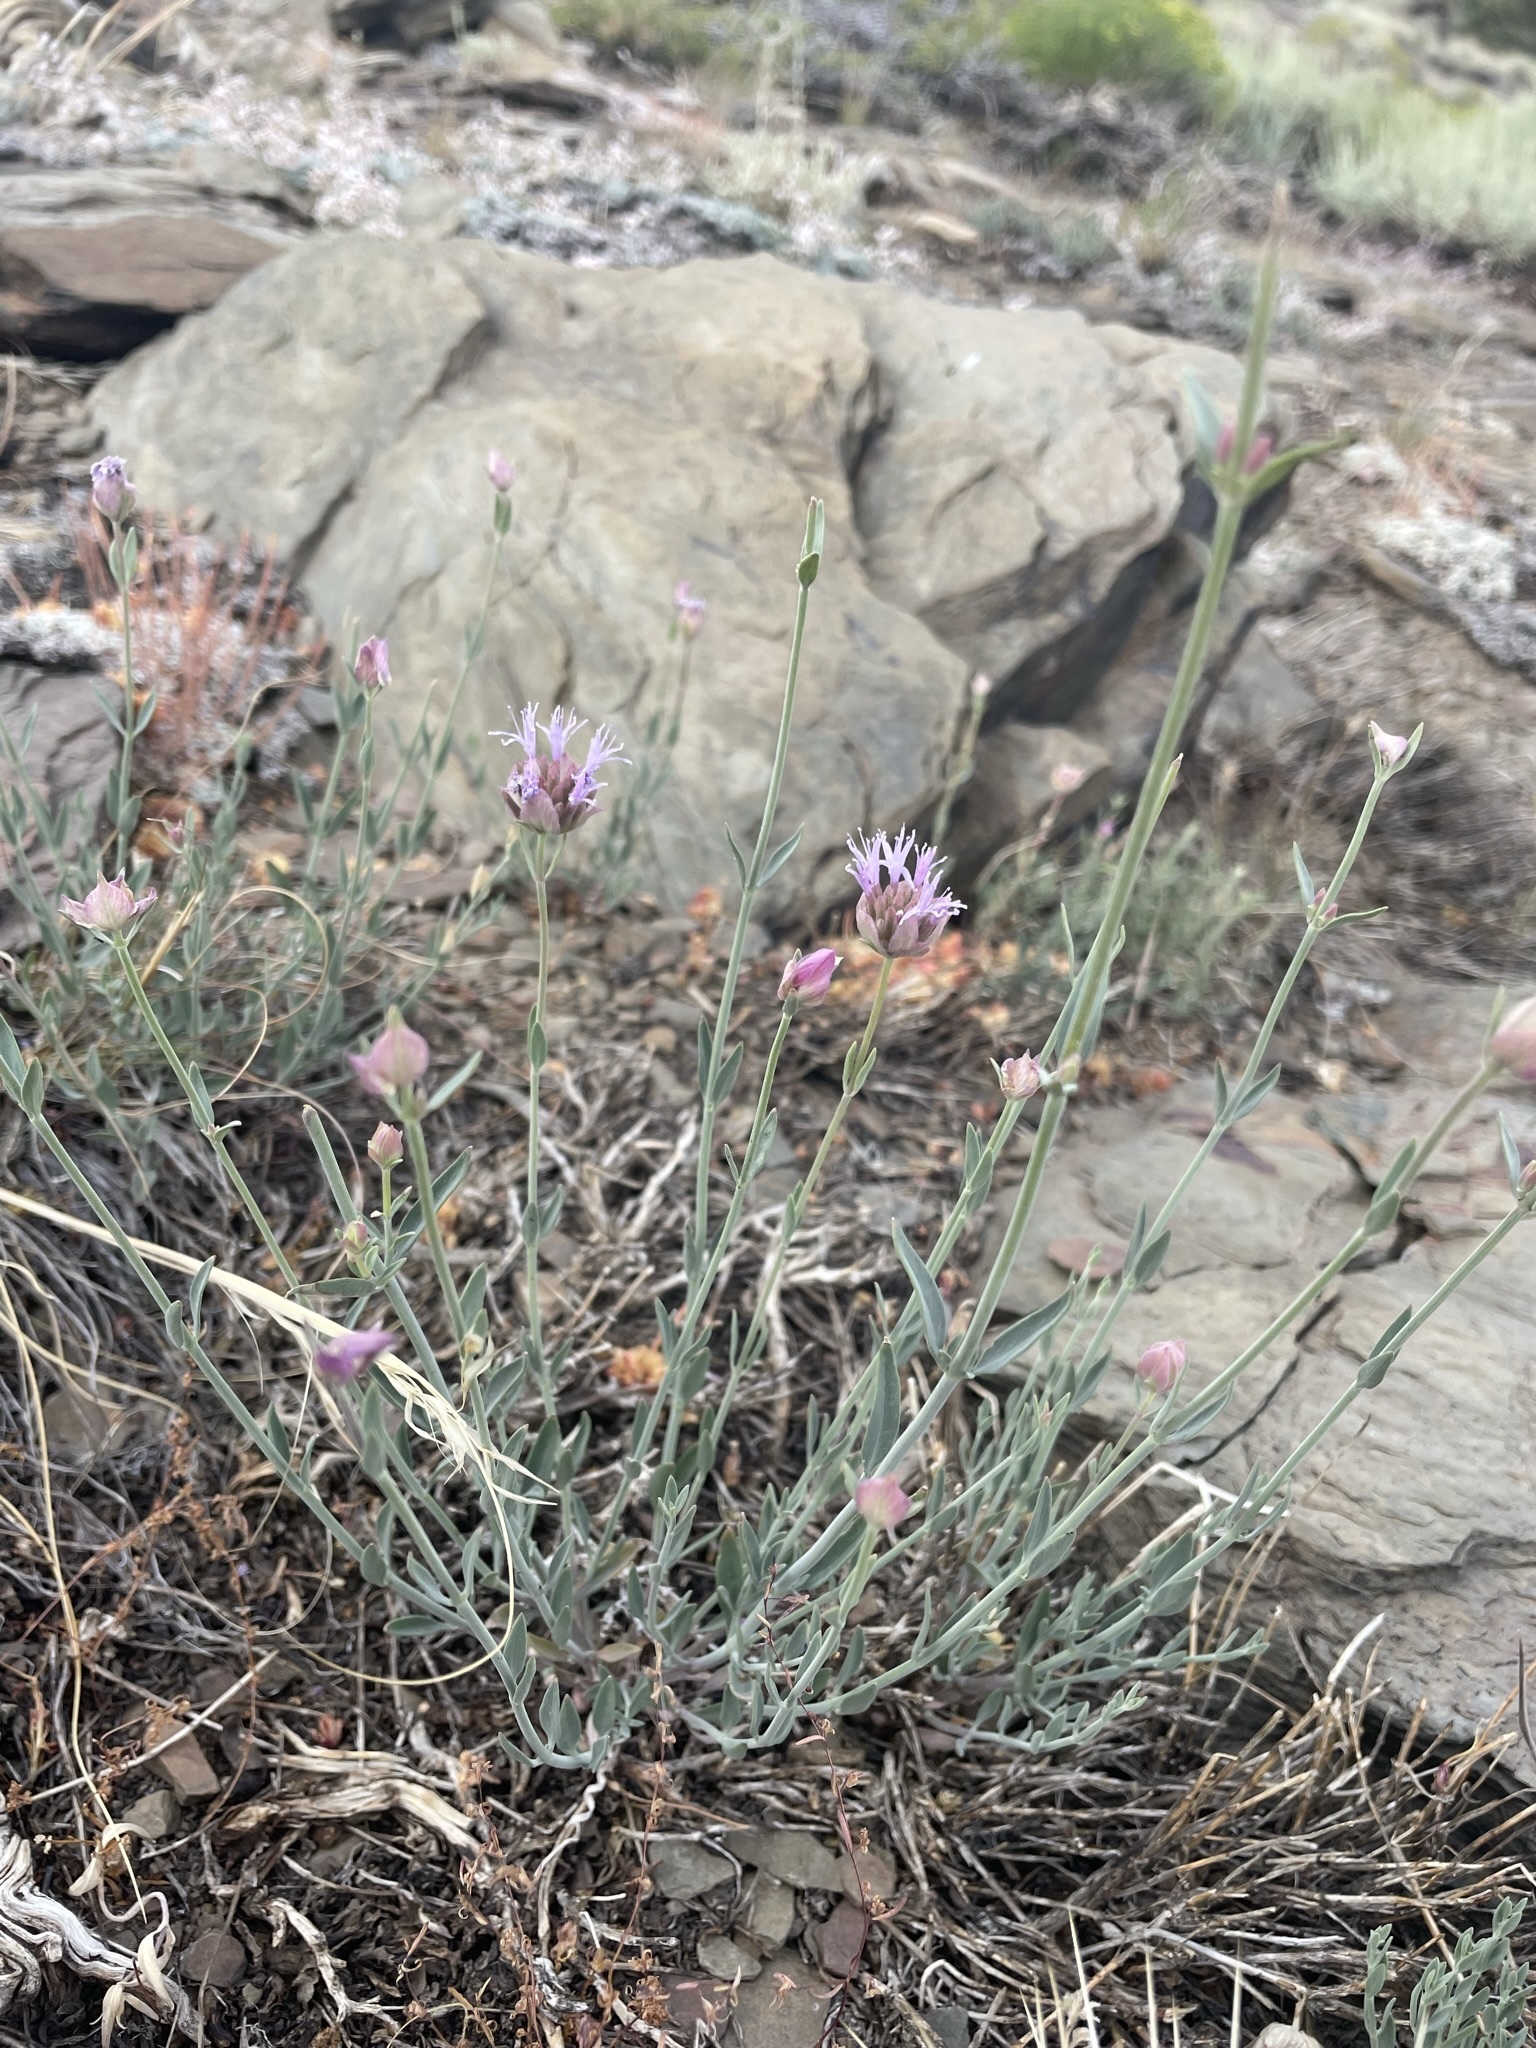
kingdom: Plantae
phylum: Tracheophyta
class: Magnoliopsida
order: Lamiales
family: Lamiaceae
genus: Monardella
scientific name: Monardella linoides
